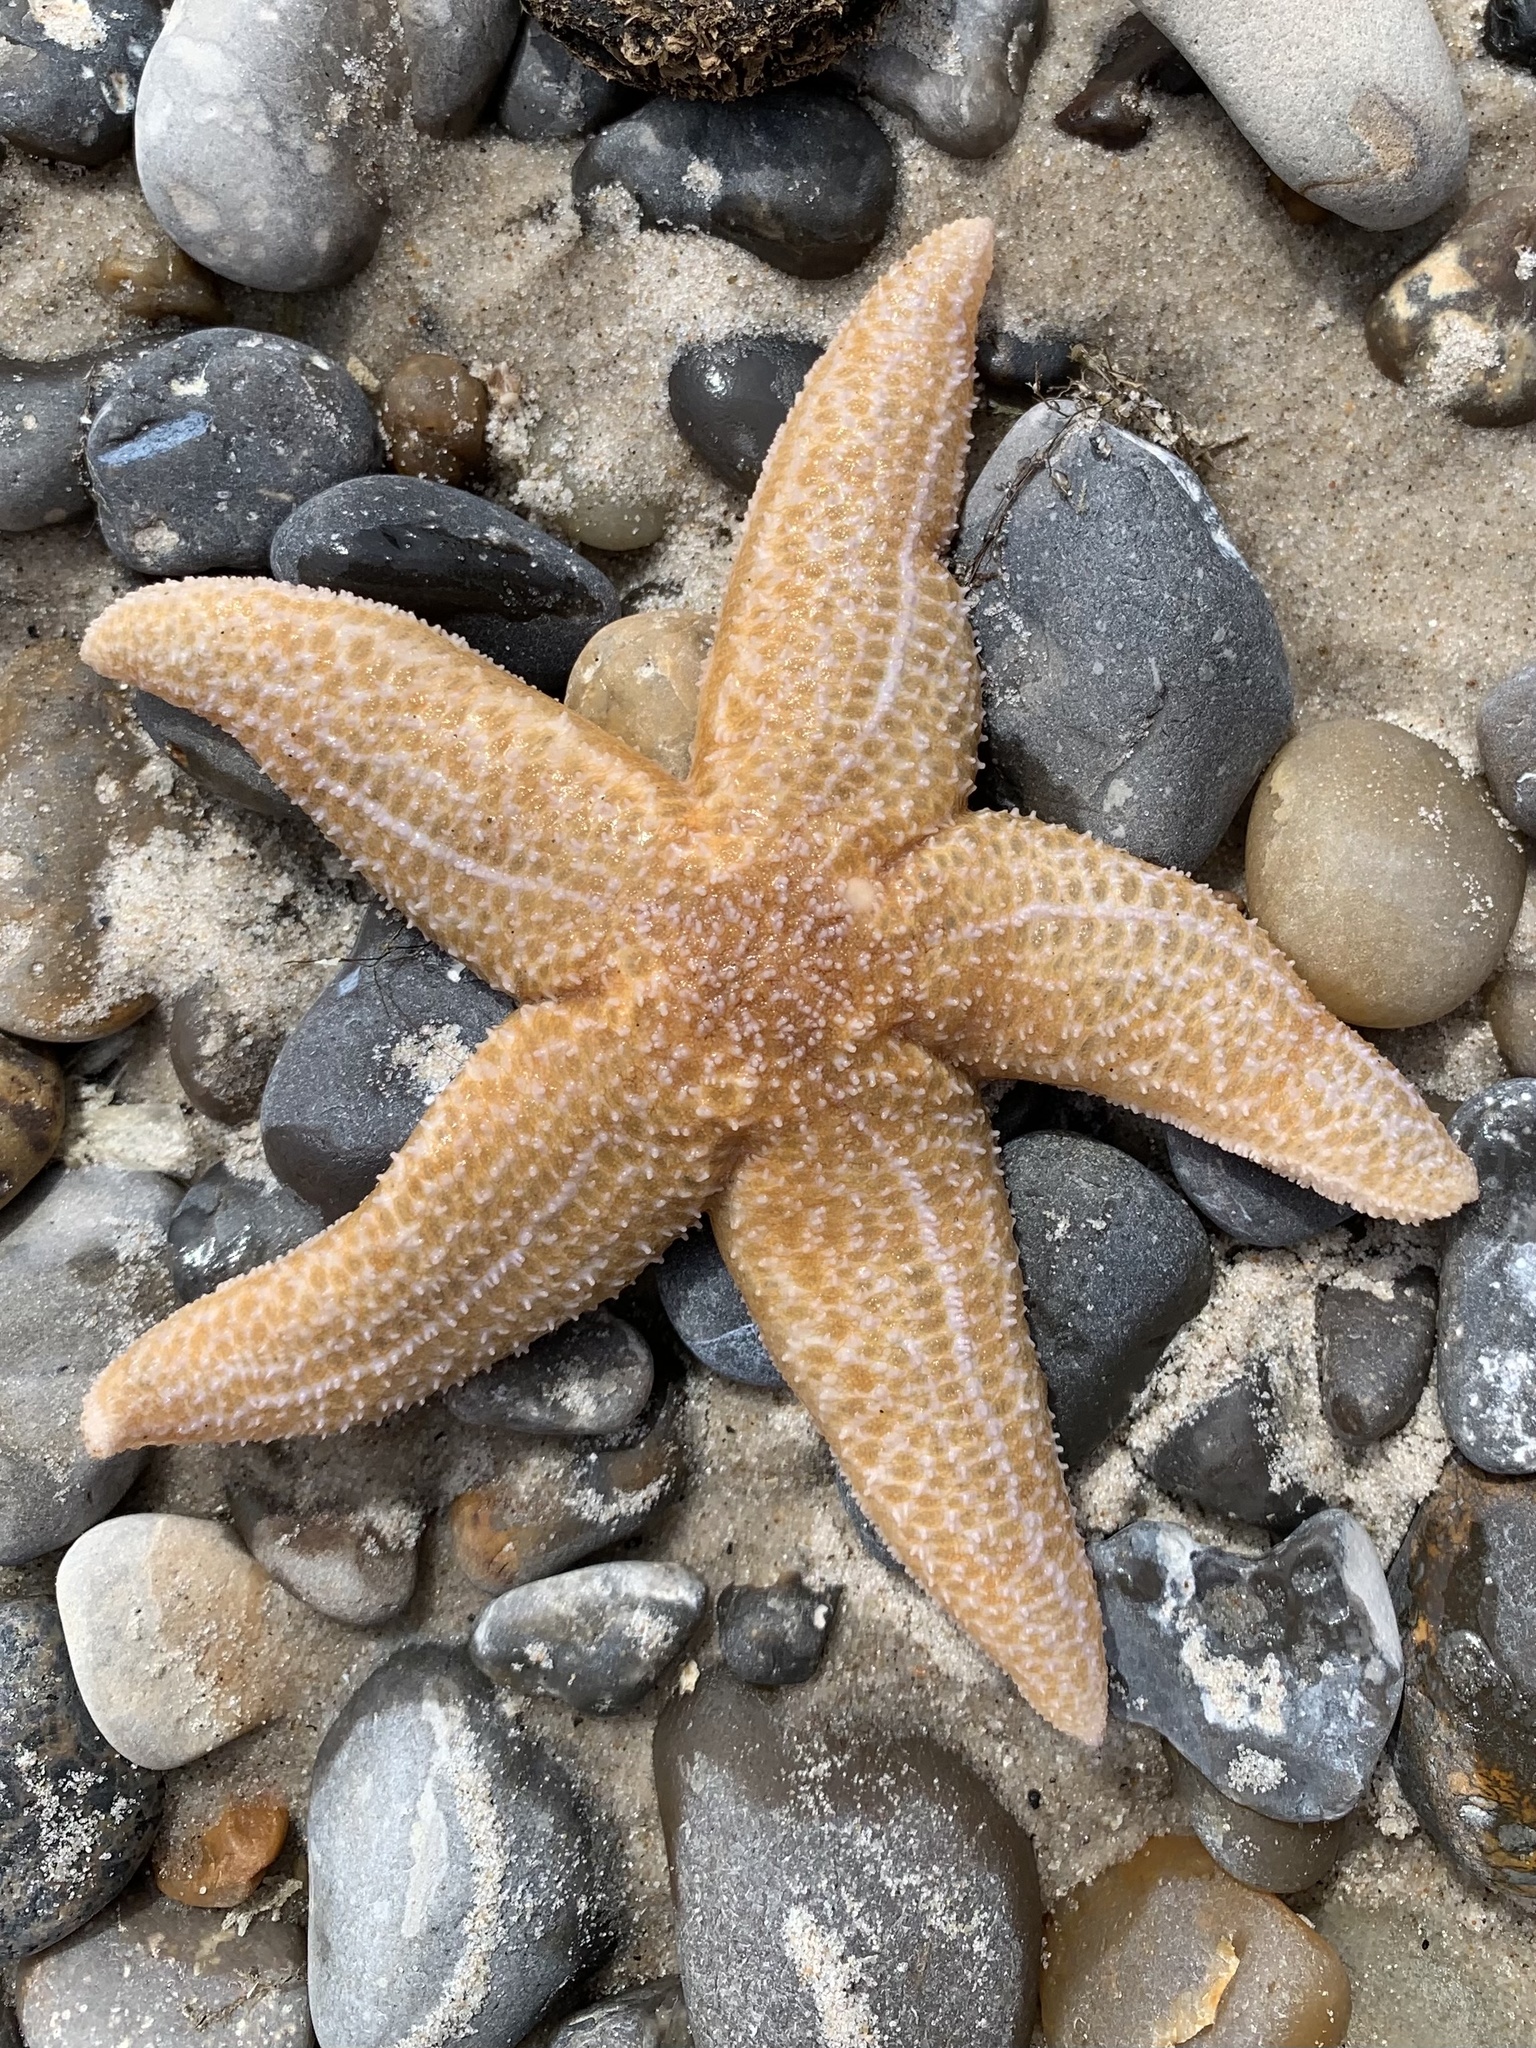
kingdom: Animalia
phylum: Echinodermata
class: Asteroidea
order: Forcipulatida
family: Asteriidae
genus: Asterias
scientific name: Asterias rubens
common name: Common starfish
